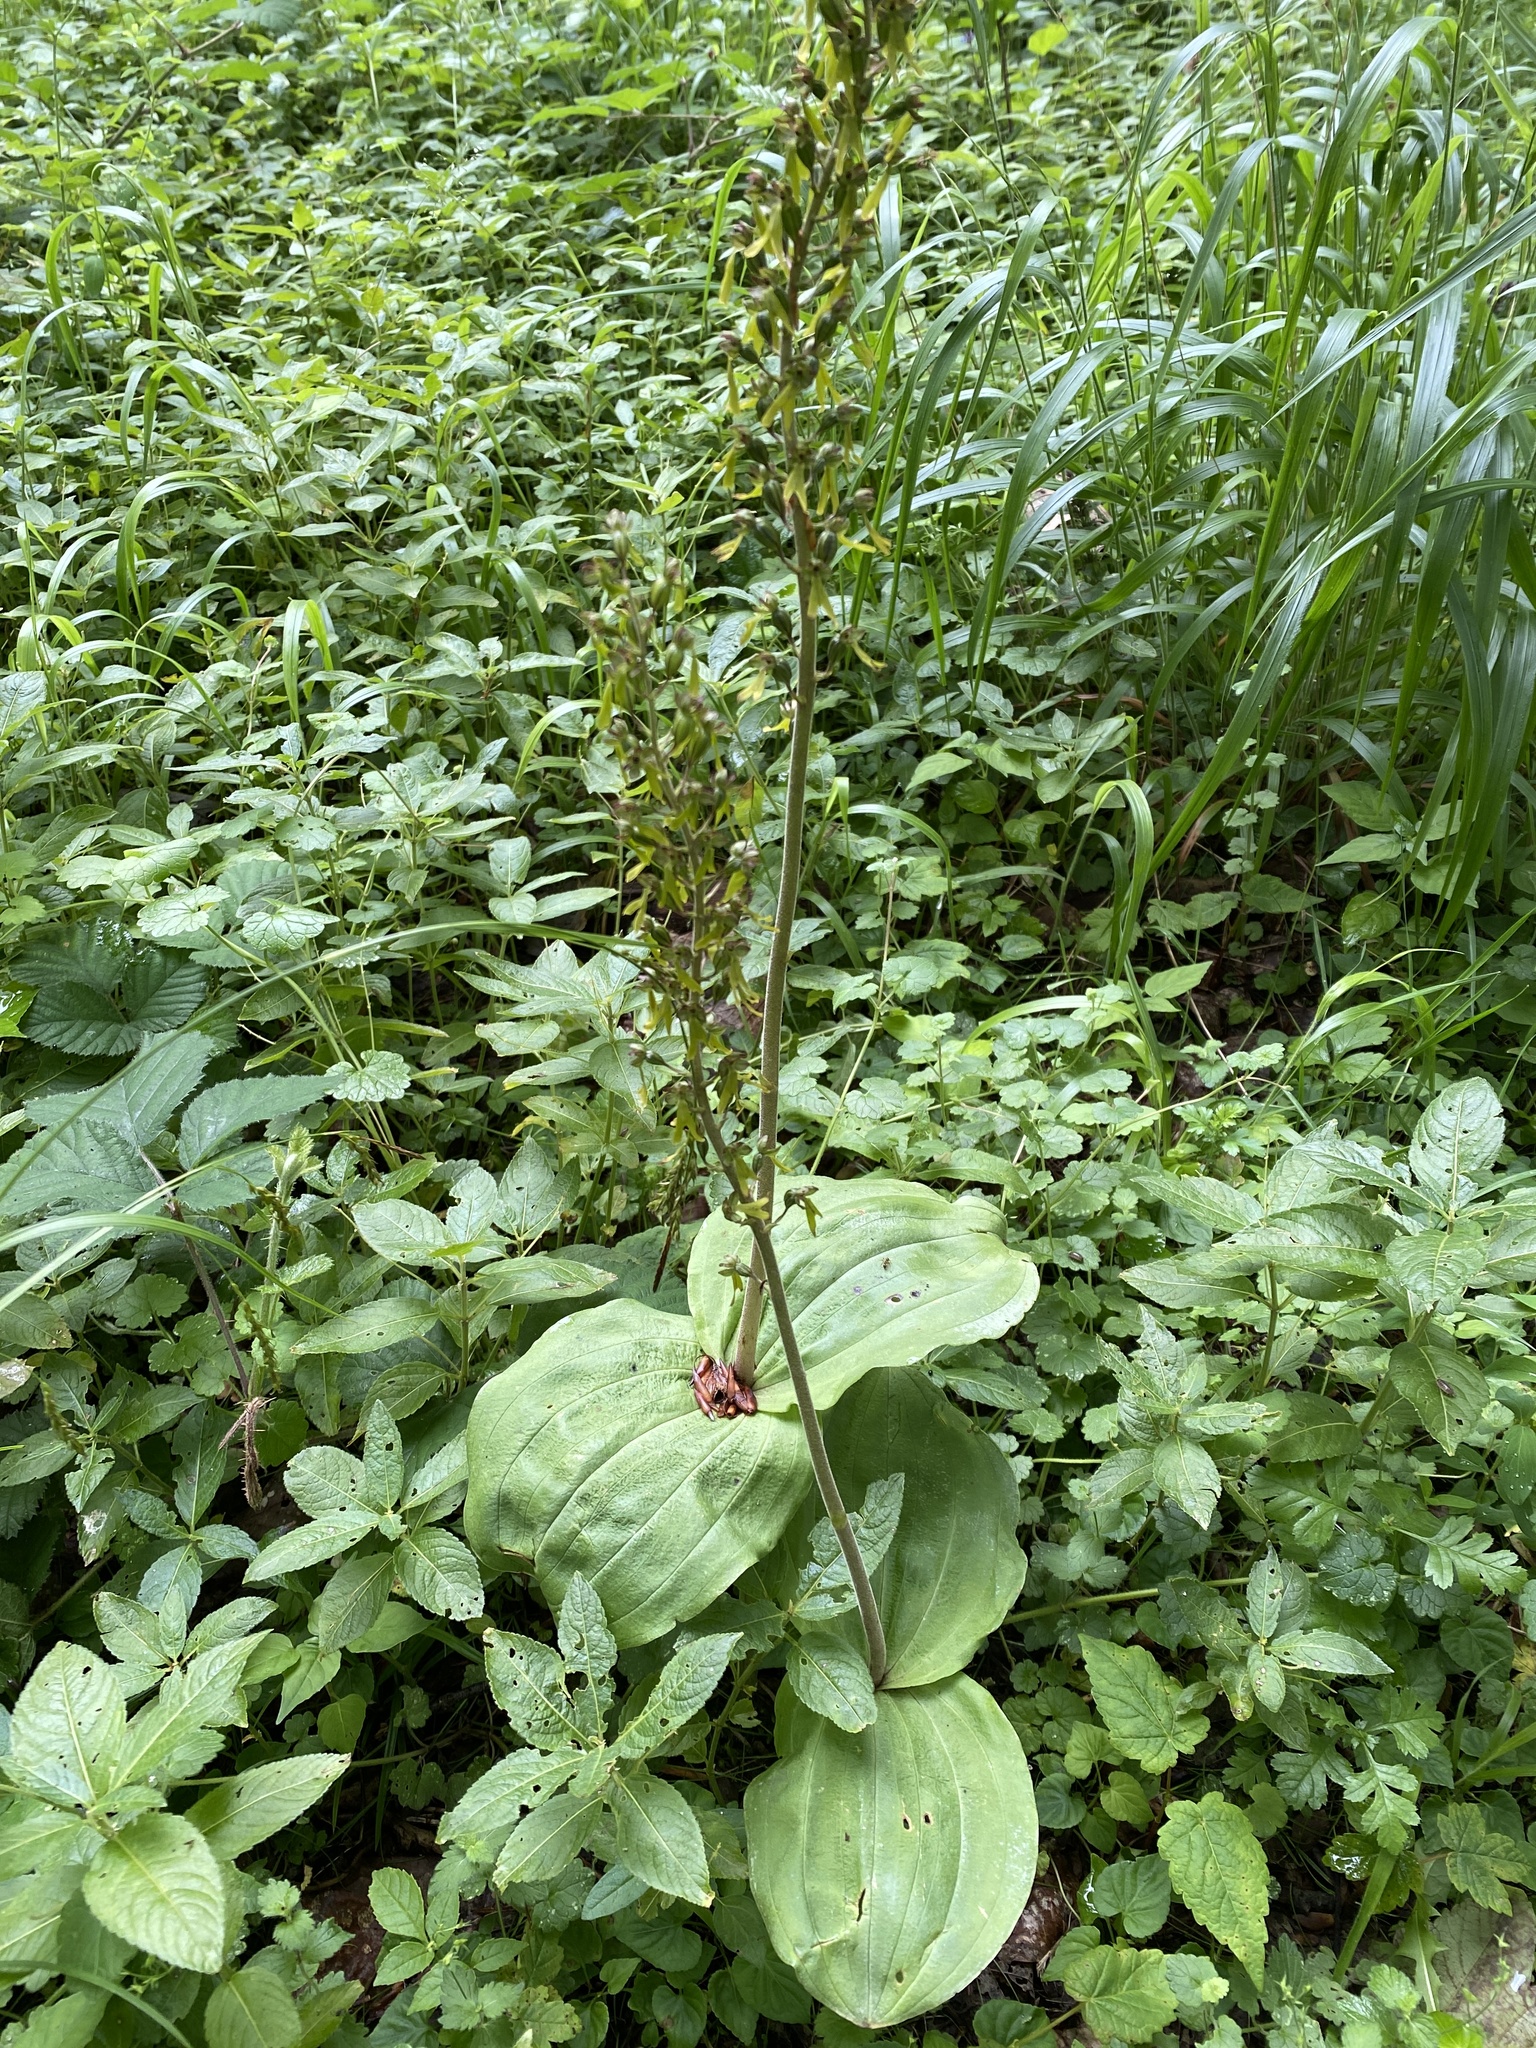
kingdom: Plantae
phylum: Tracheophyta
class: Liliopsida
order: Asparagales
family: Orchidaceae
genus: Neottia
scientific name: Neottia ovata
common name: Common twayblade
